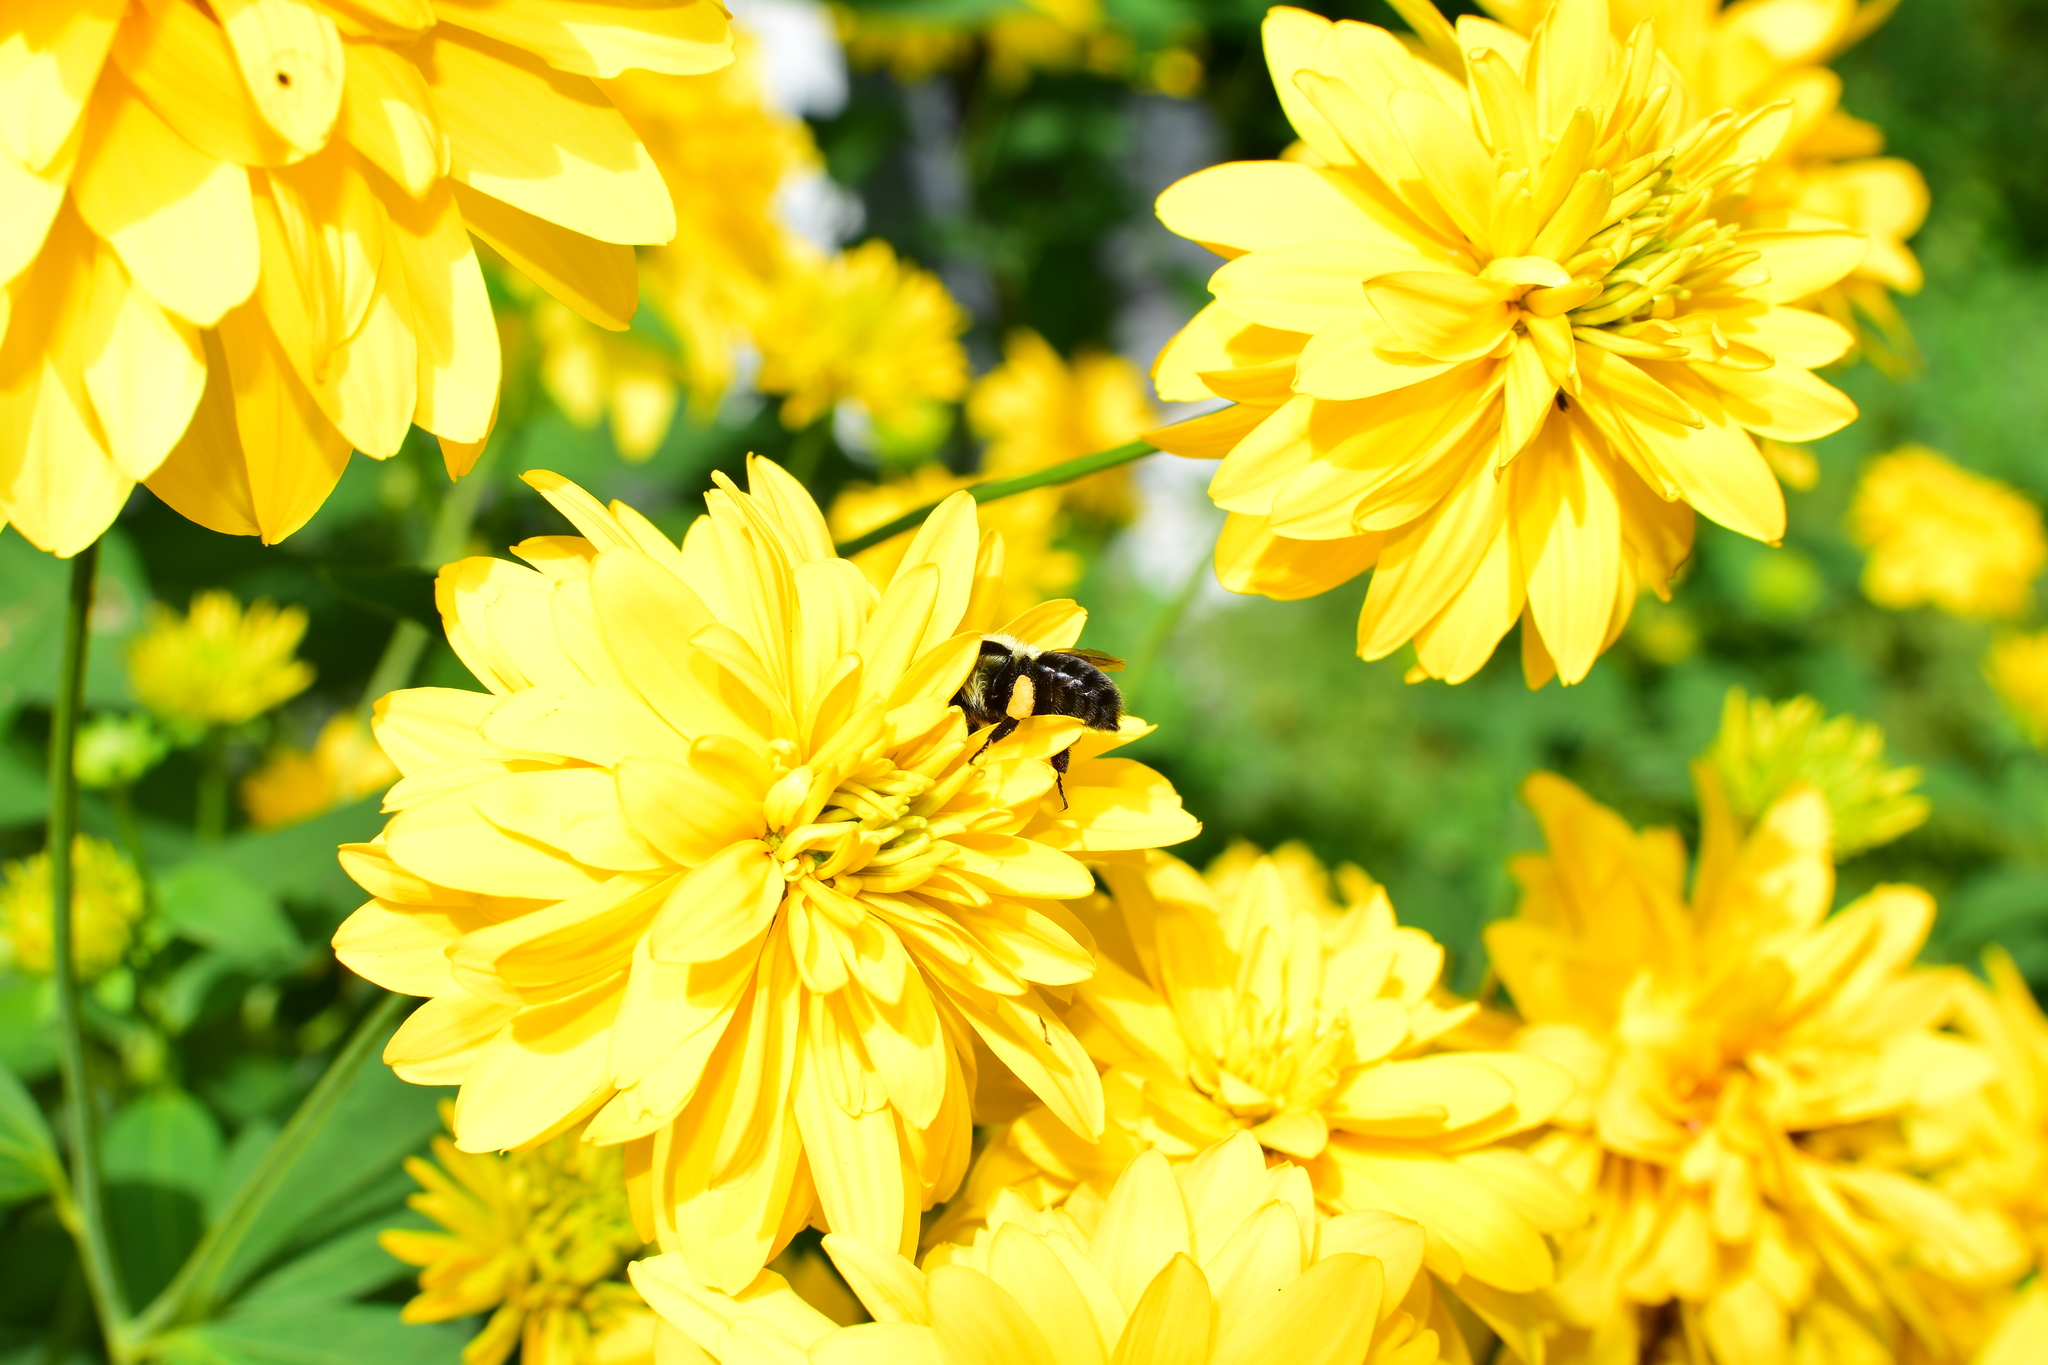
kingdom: Animalia
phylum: Arthropoda
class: Insecta
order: Hymenoptera
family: Apidae
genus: Bombus
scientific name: Bombus impatiens
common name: Common eastern bumble bee
